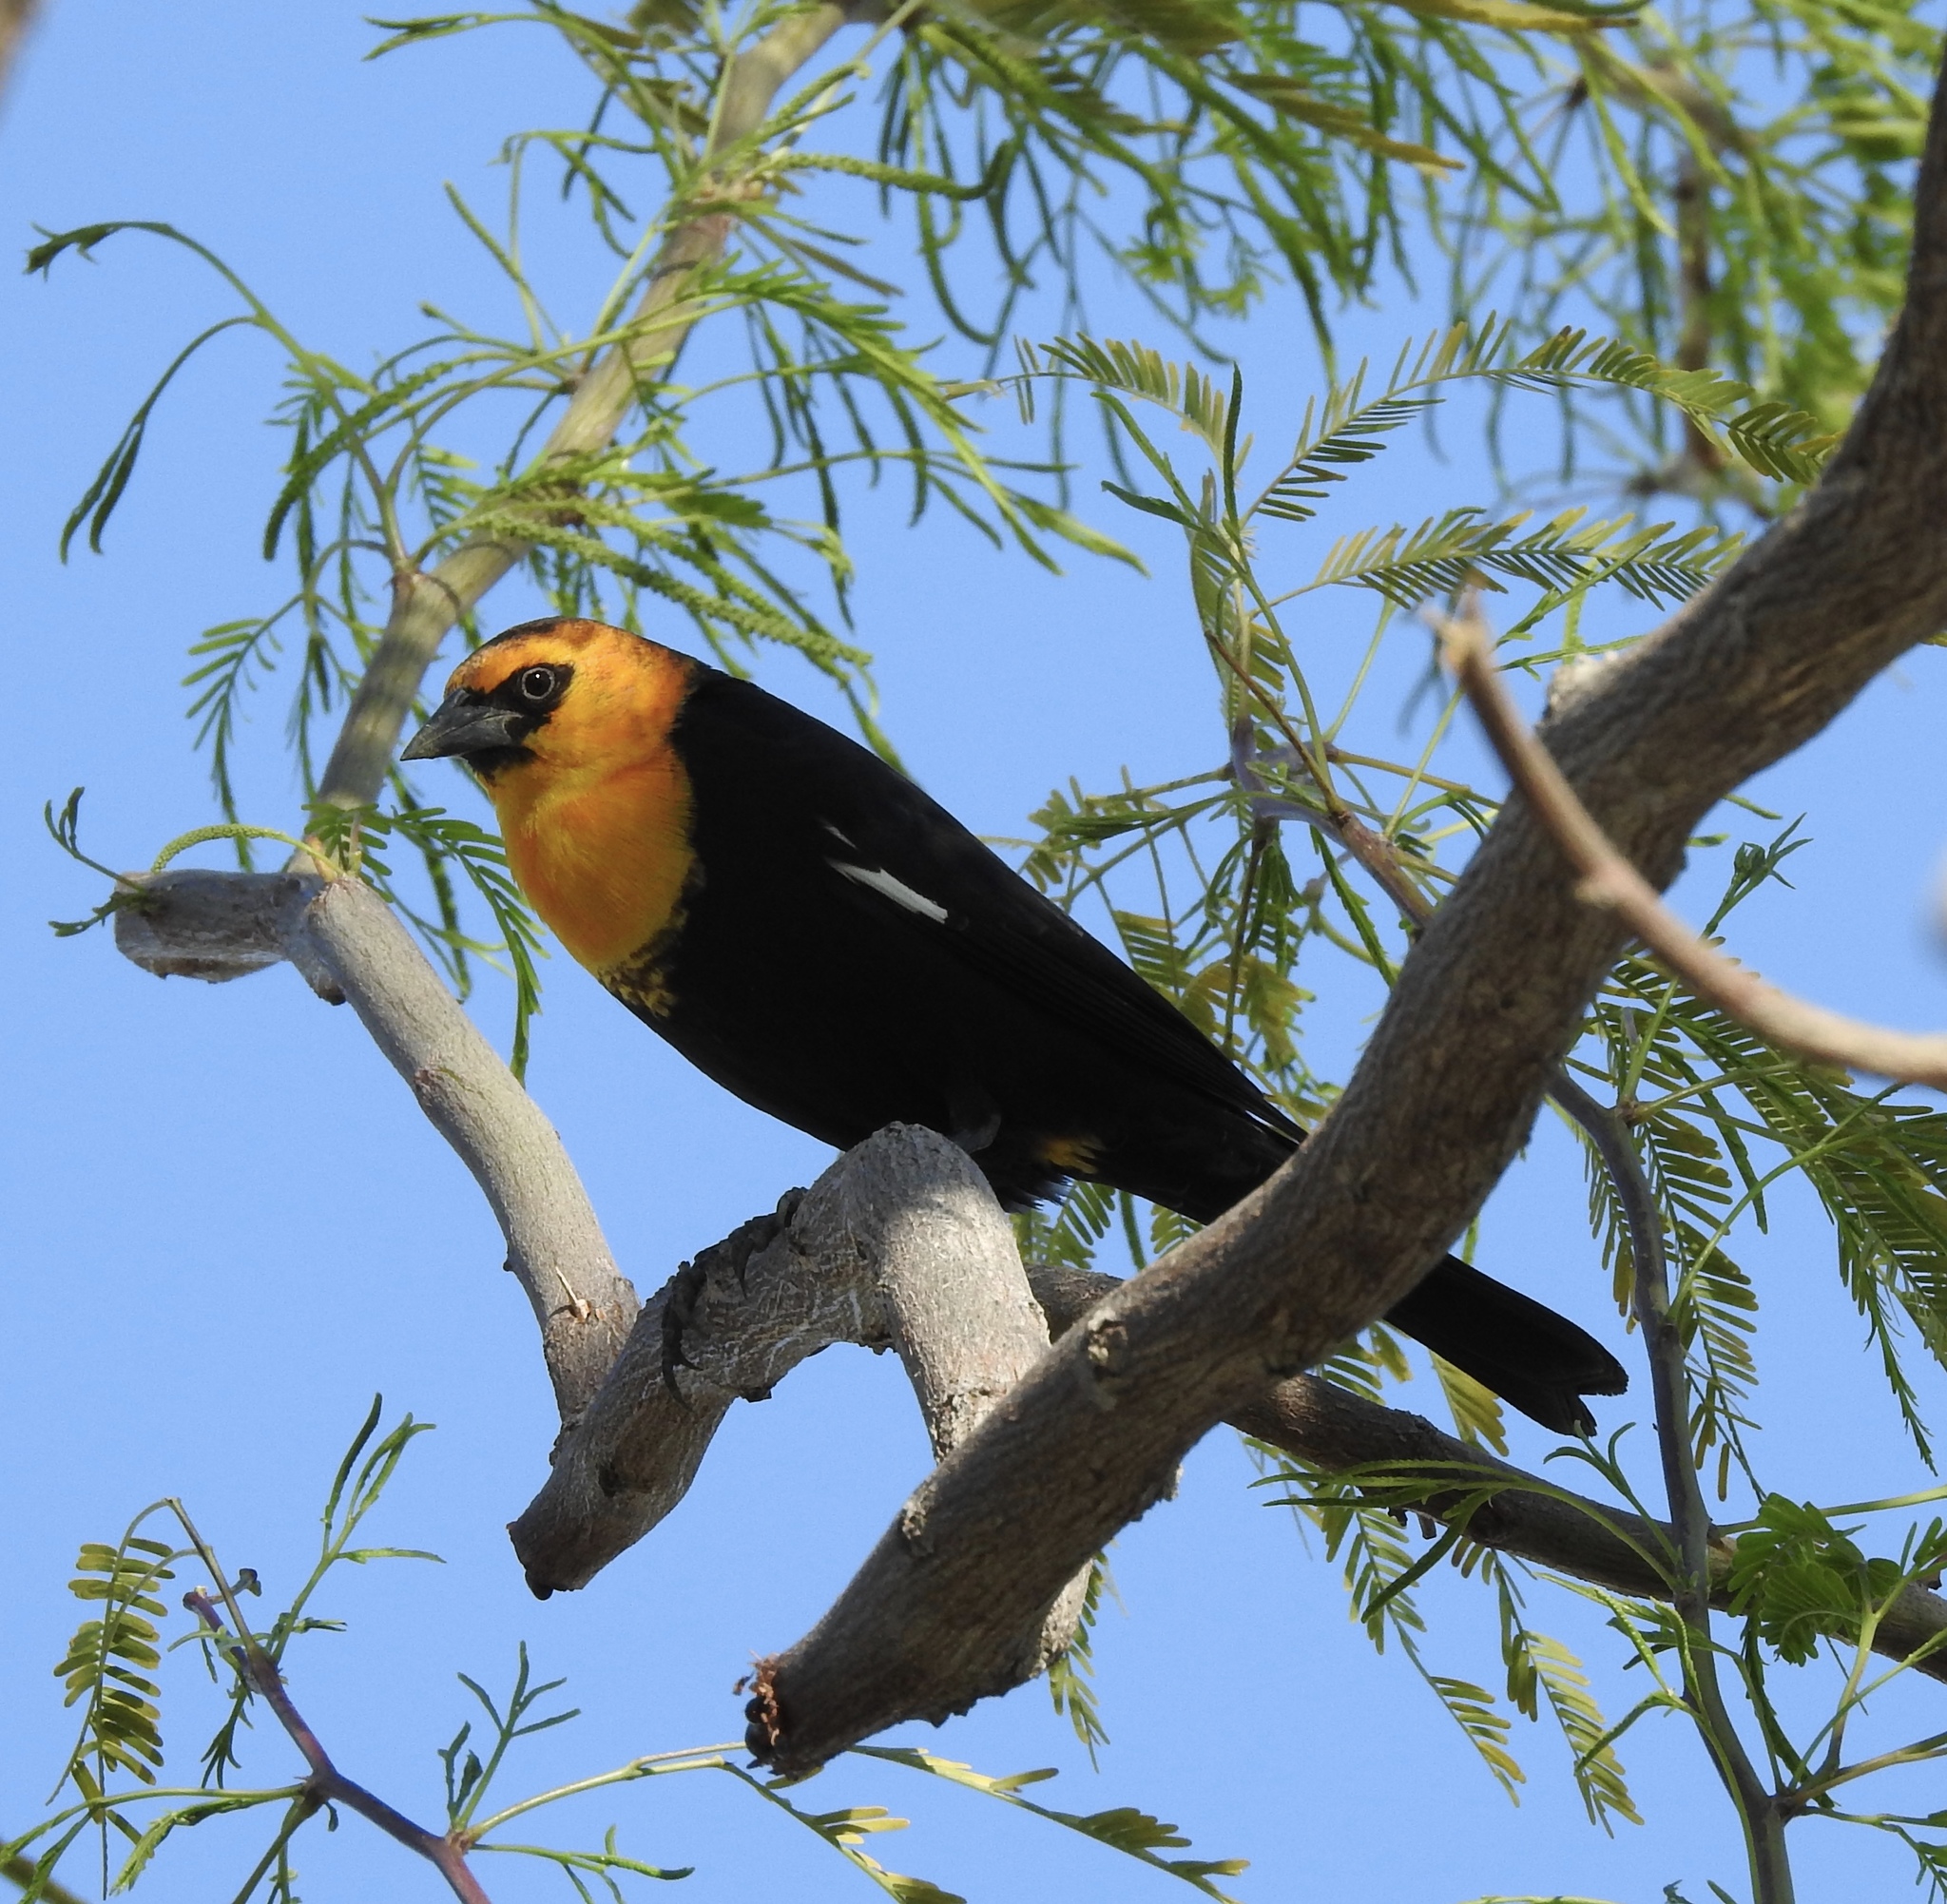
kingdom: Animalia
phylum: Chordata
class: Aves
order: Passeriformes
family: Icteridae
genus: Xanthocephalus
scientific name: Xanthocephalus xanthocephalus
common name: Yellow-headed blackbird
